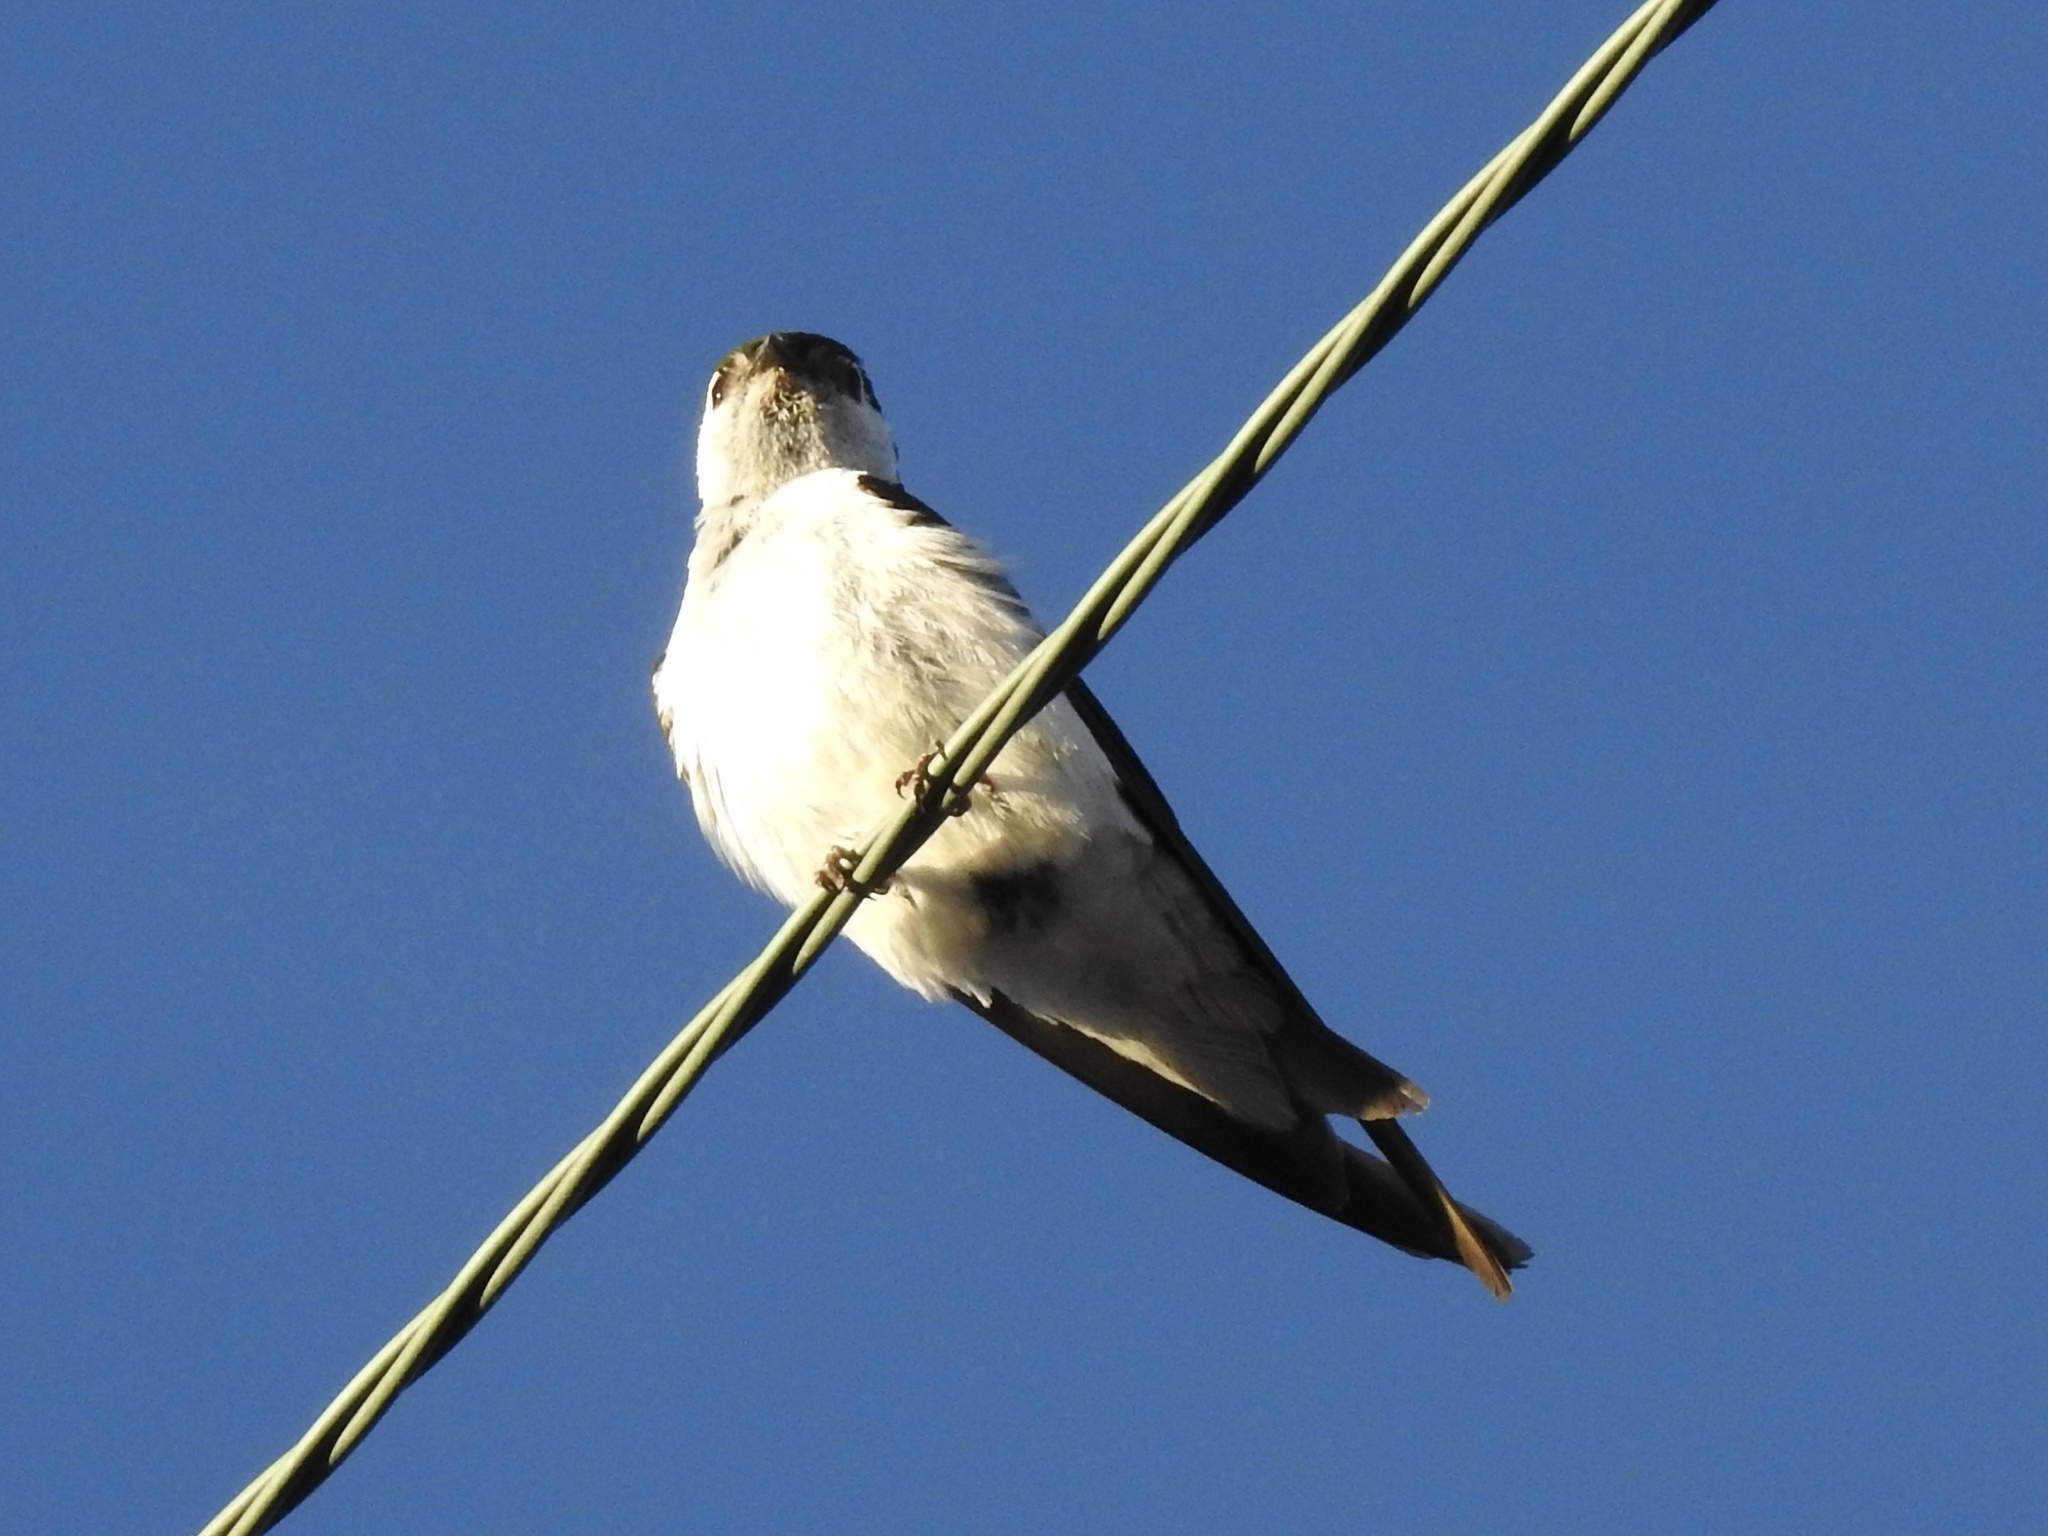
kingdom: Animalia
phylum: Chordata
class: Aves
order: Passeriformes
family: Hirundinidae
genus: Tachycineta
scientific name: Tachycineta thalassina
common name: Violet-green swallow
